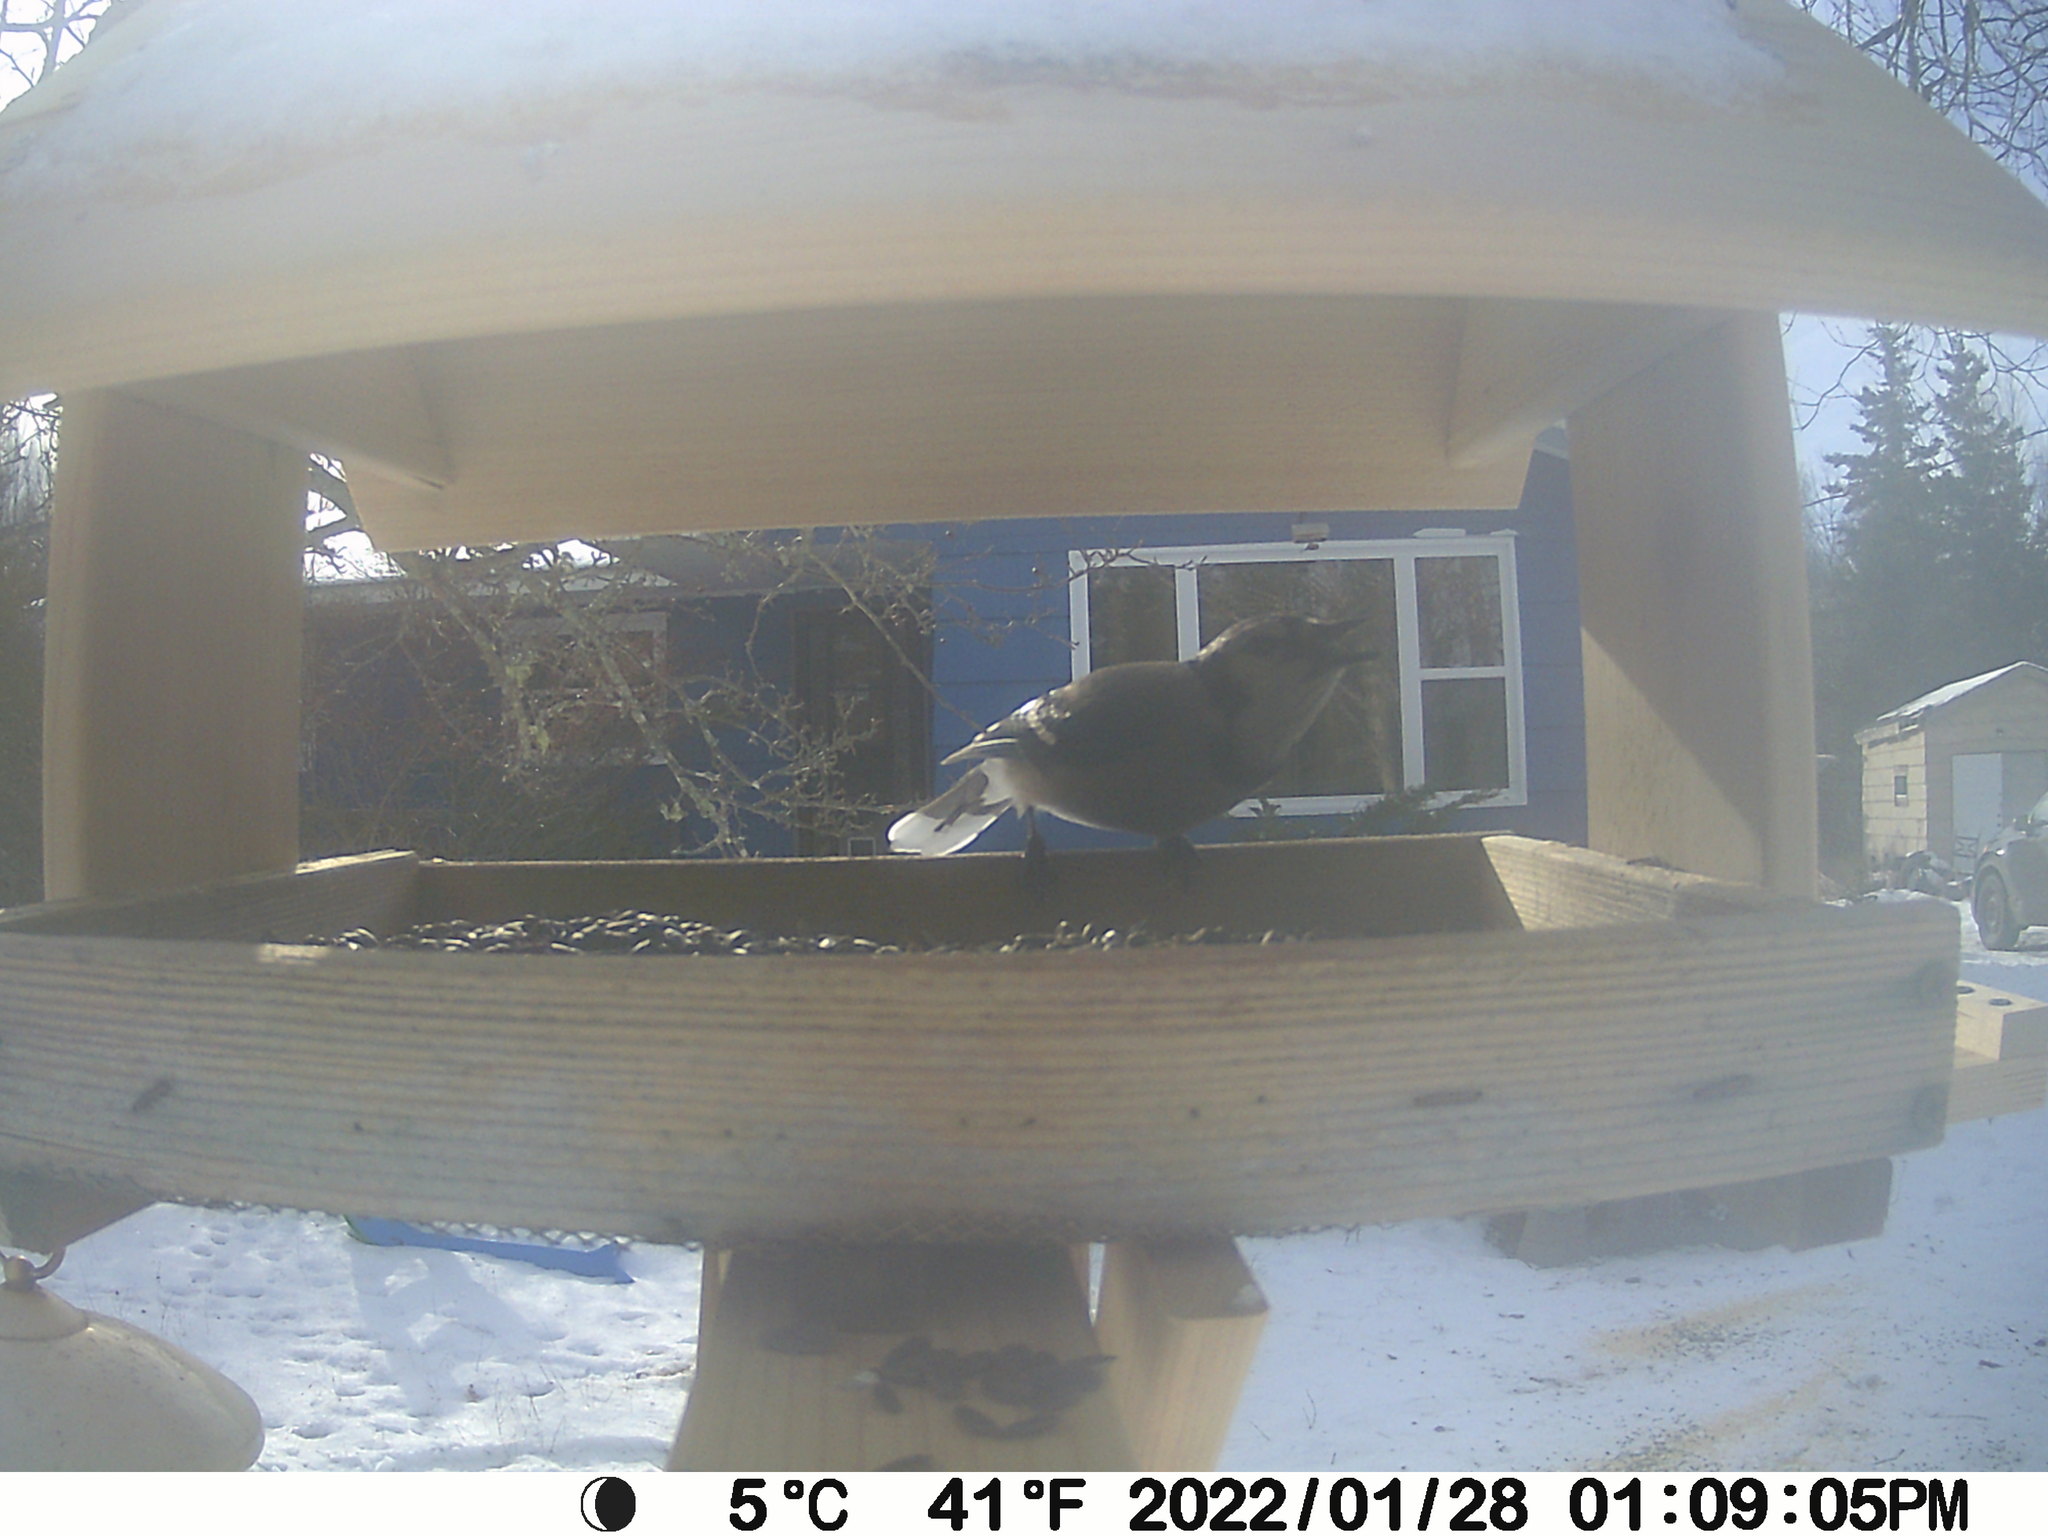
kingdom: Animalia
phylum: Chordata
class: Aves
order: Passeriformes
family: Corvidae
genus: Cyanocitta
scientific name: Cyanocitta cristata
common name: Blue jay
